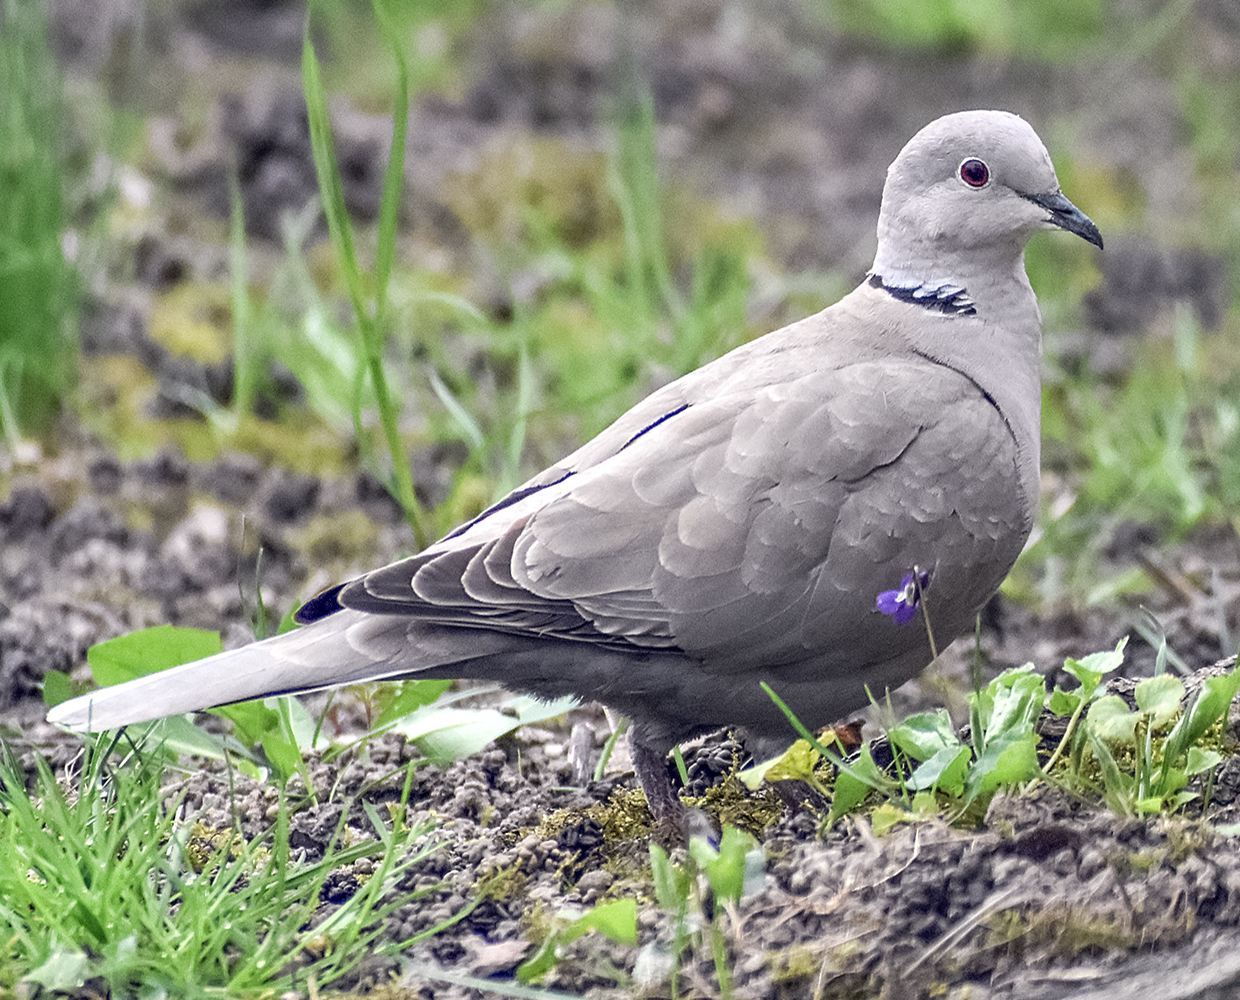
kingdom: Animalia
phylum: Chordata
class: Aves
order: Columbiformes
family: Columbidae
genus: Streptopelia
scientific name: Streptopelia decaocto
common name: Eurasian collared dove
